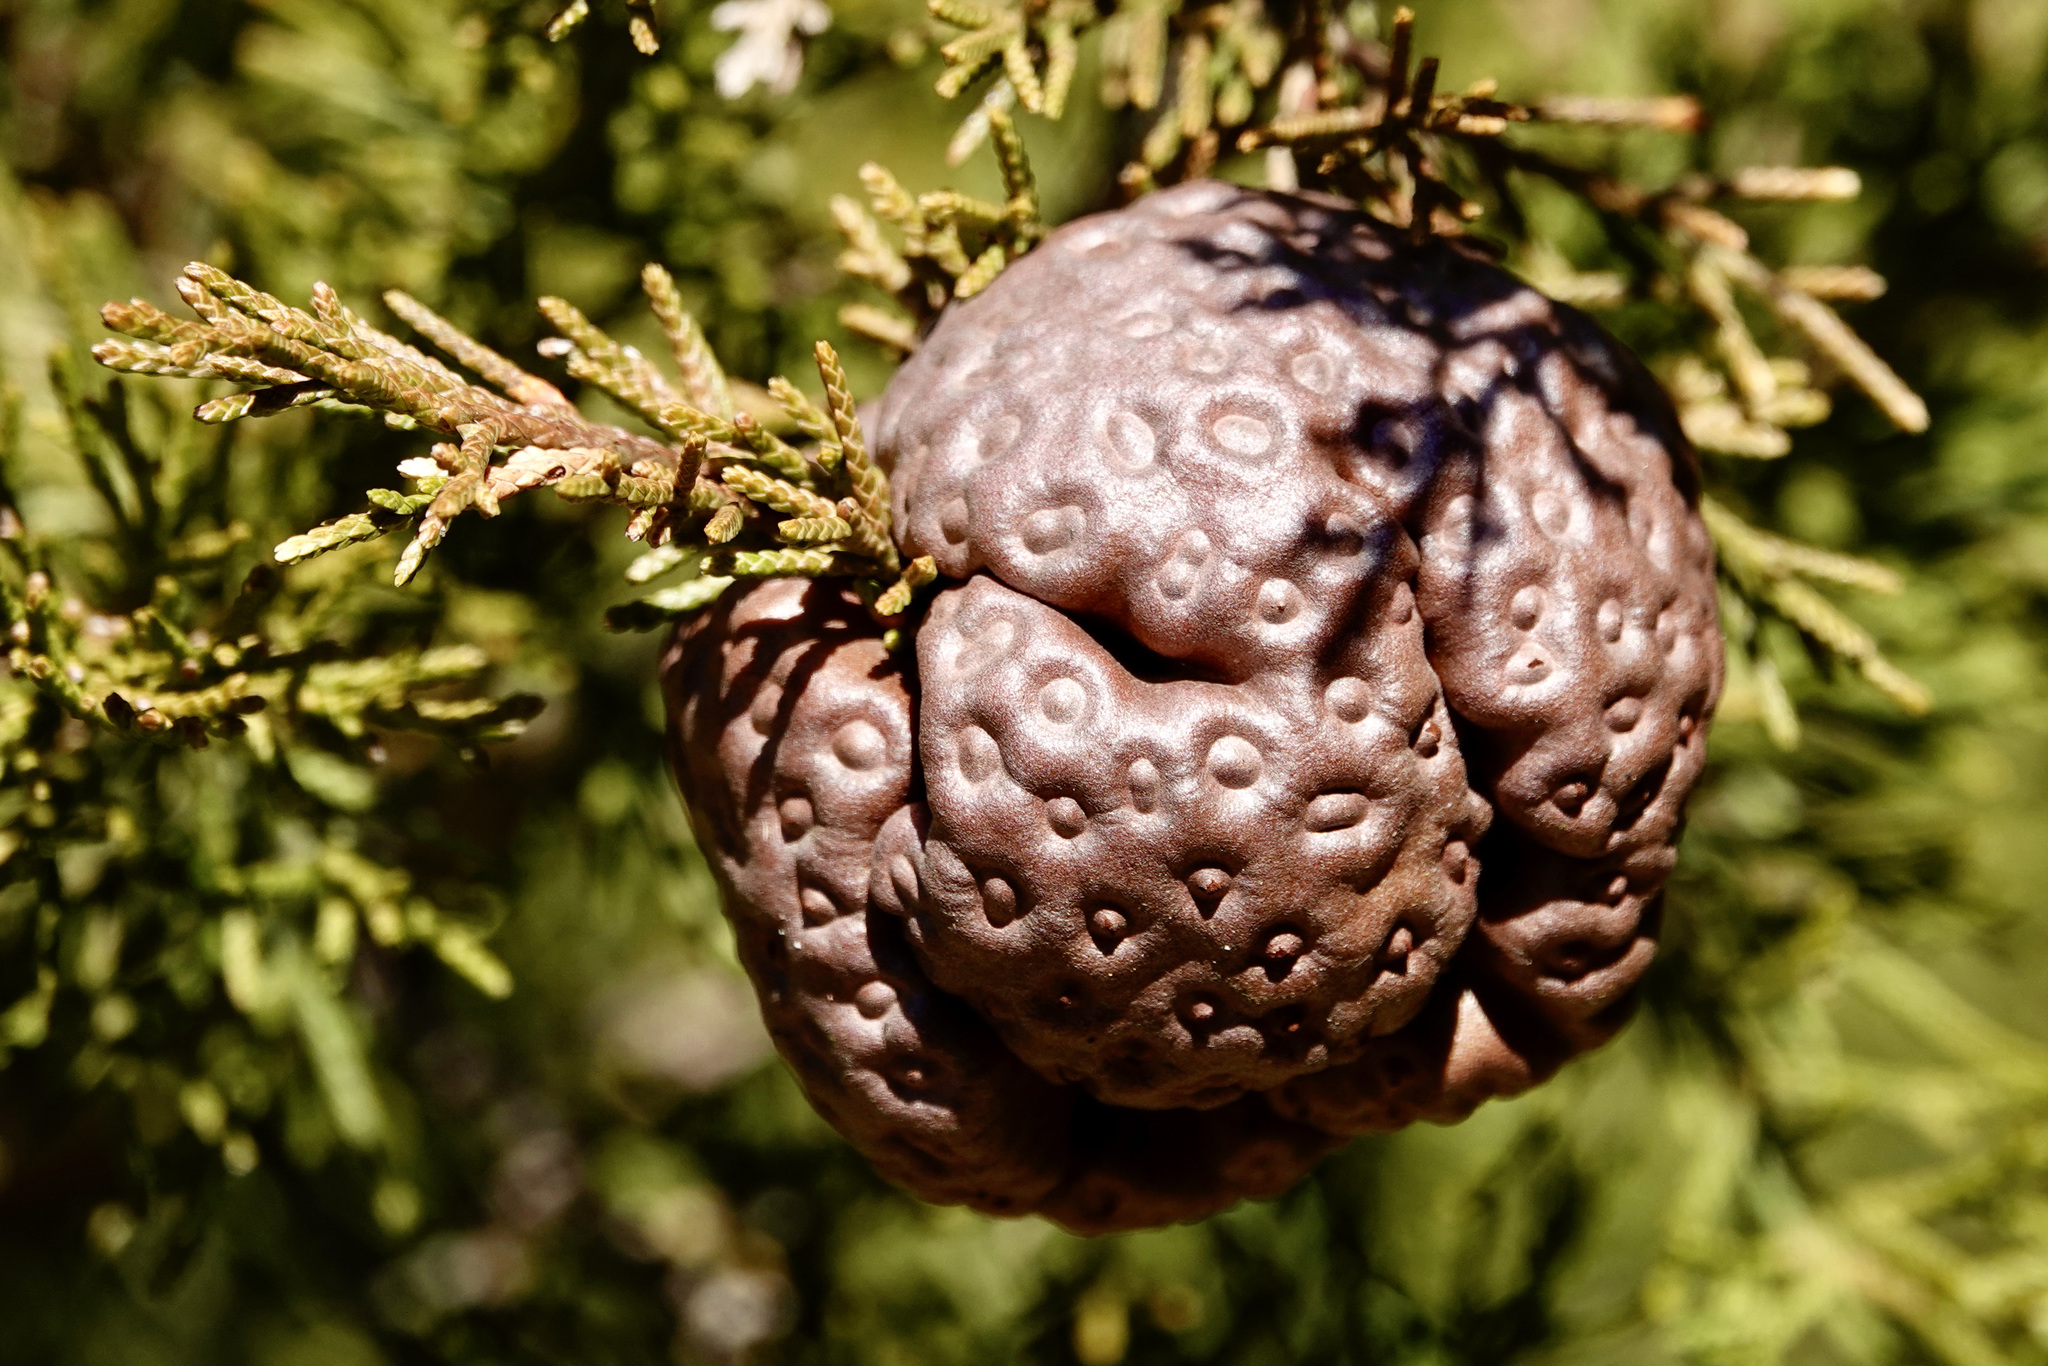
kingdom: Fungi
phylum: Basidiomycota
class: Pucciniomycetes
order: Pucciniales
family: Gymnosporangiaceae
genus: Gymnosporangium
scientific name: Gymnosporangium juniperi-virginianae
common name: Juniper-apple rust
